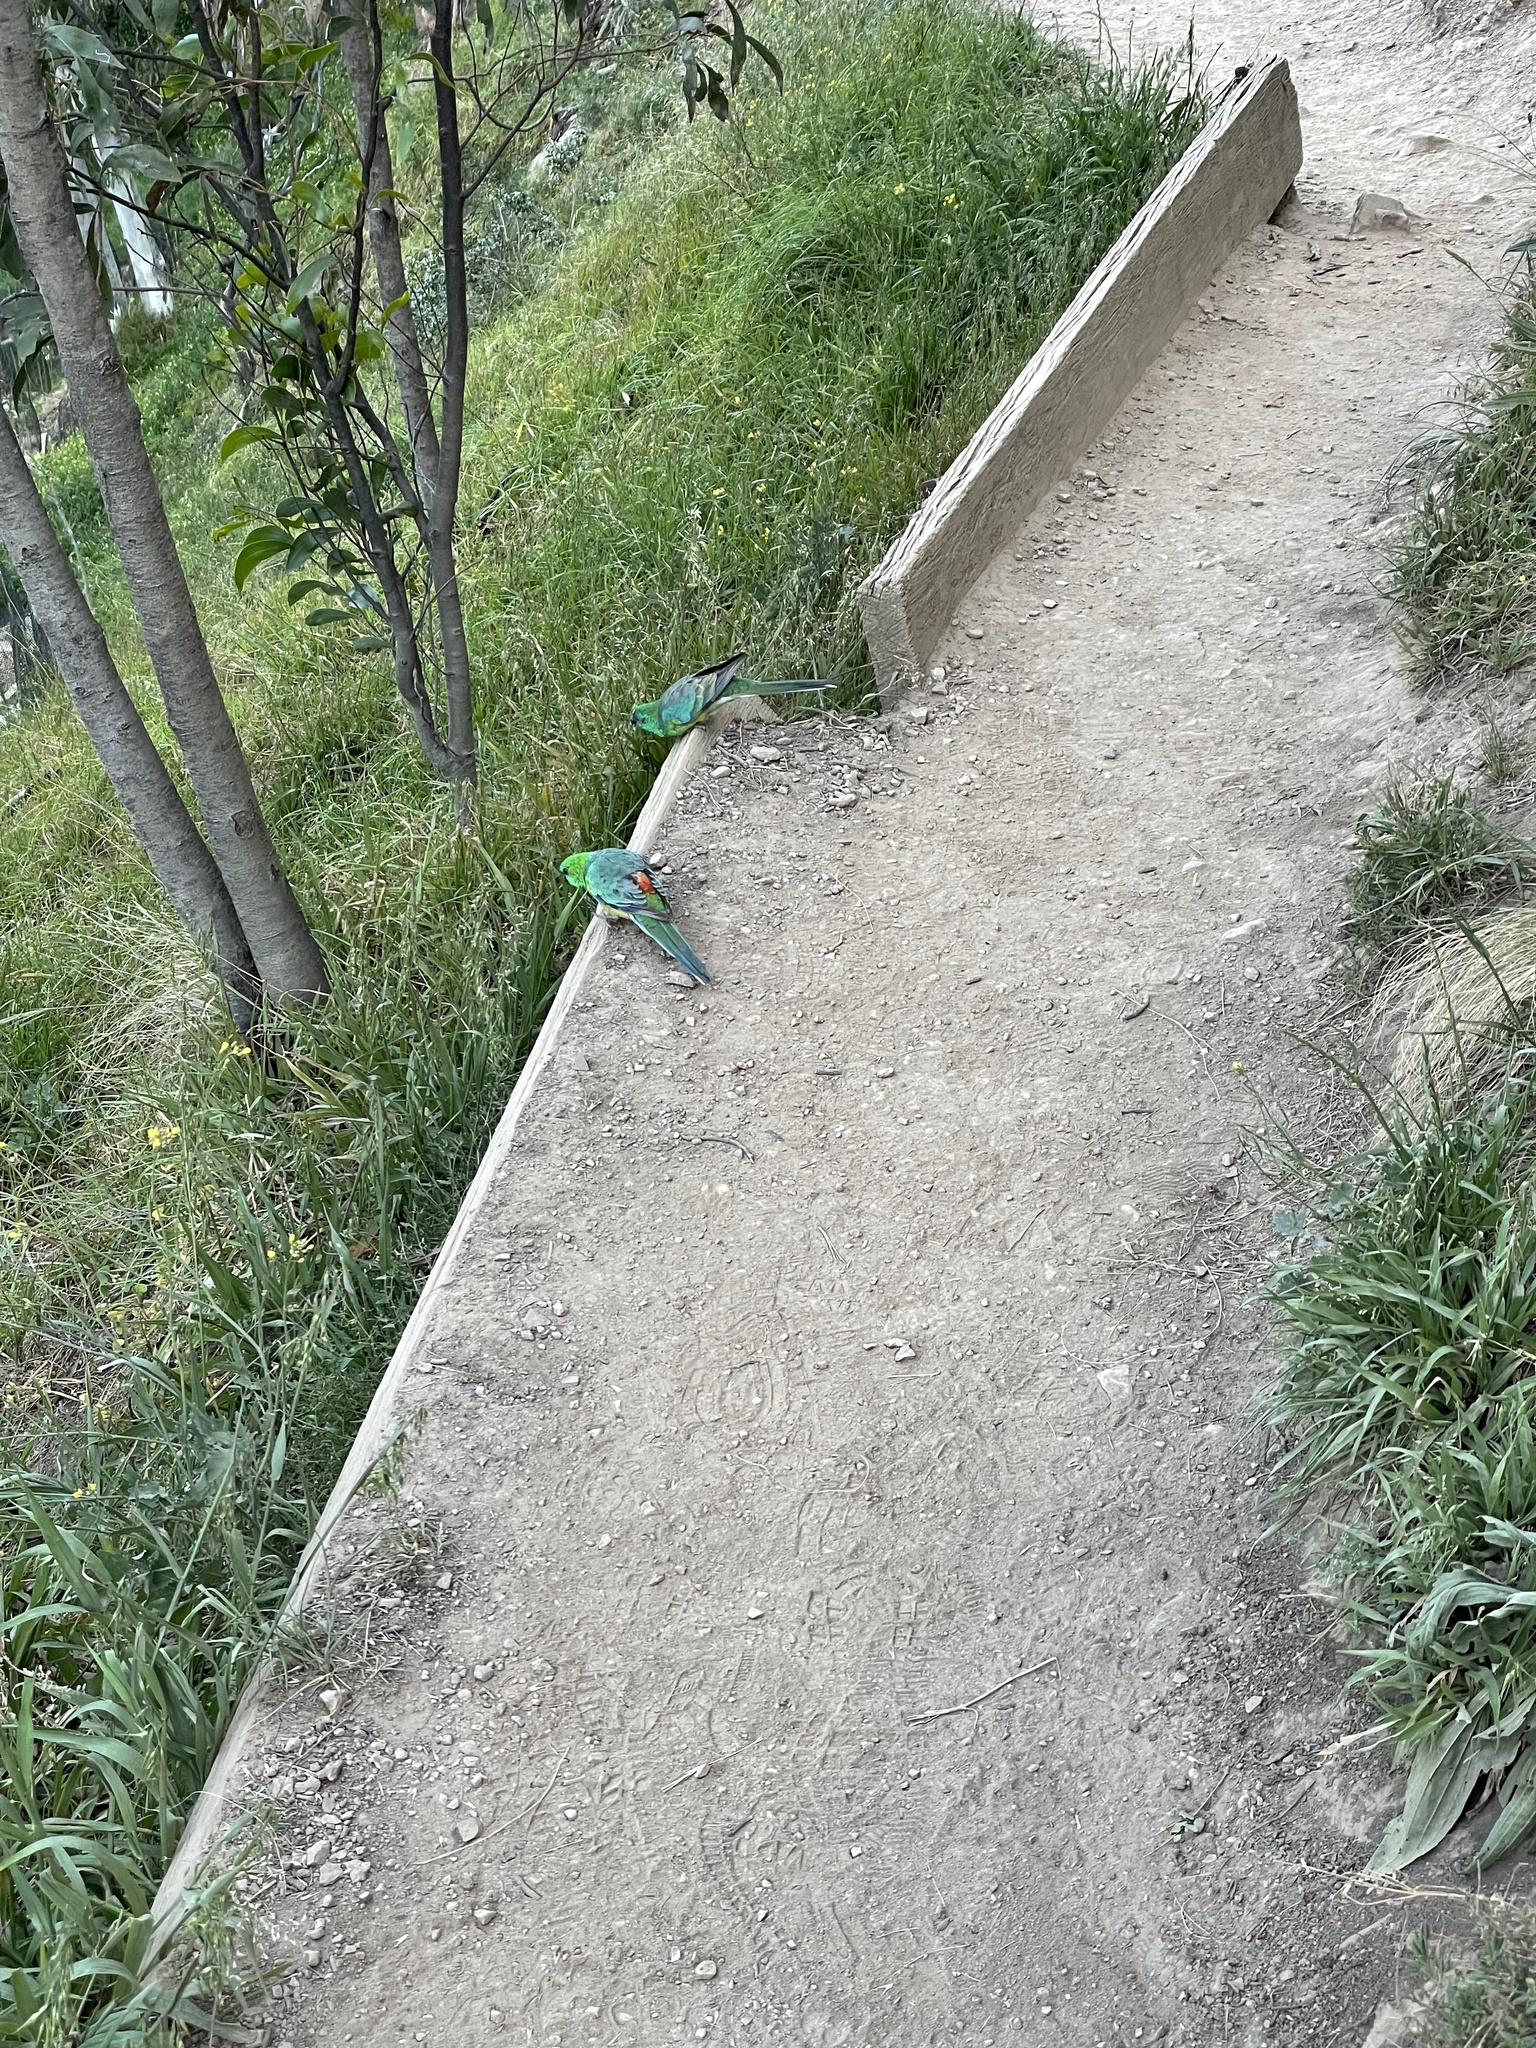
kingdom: Animalia
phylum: Chordata
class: Aves
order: Psittaciformes
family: Psittacidae
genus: Psephotus
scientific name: Psephotus haematonotus
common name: Red-rumped parrot
